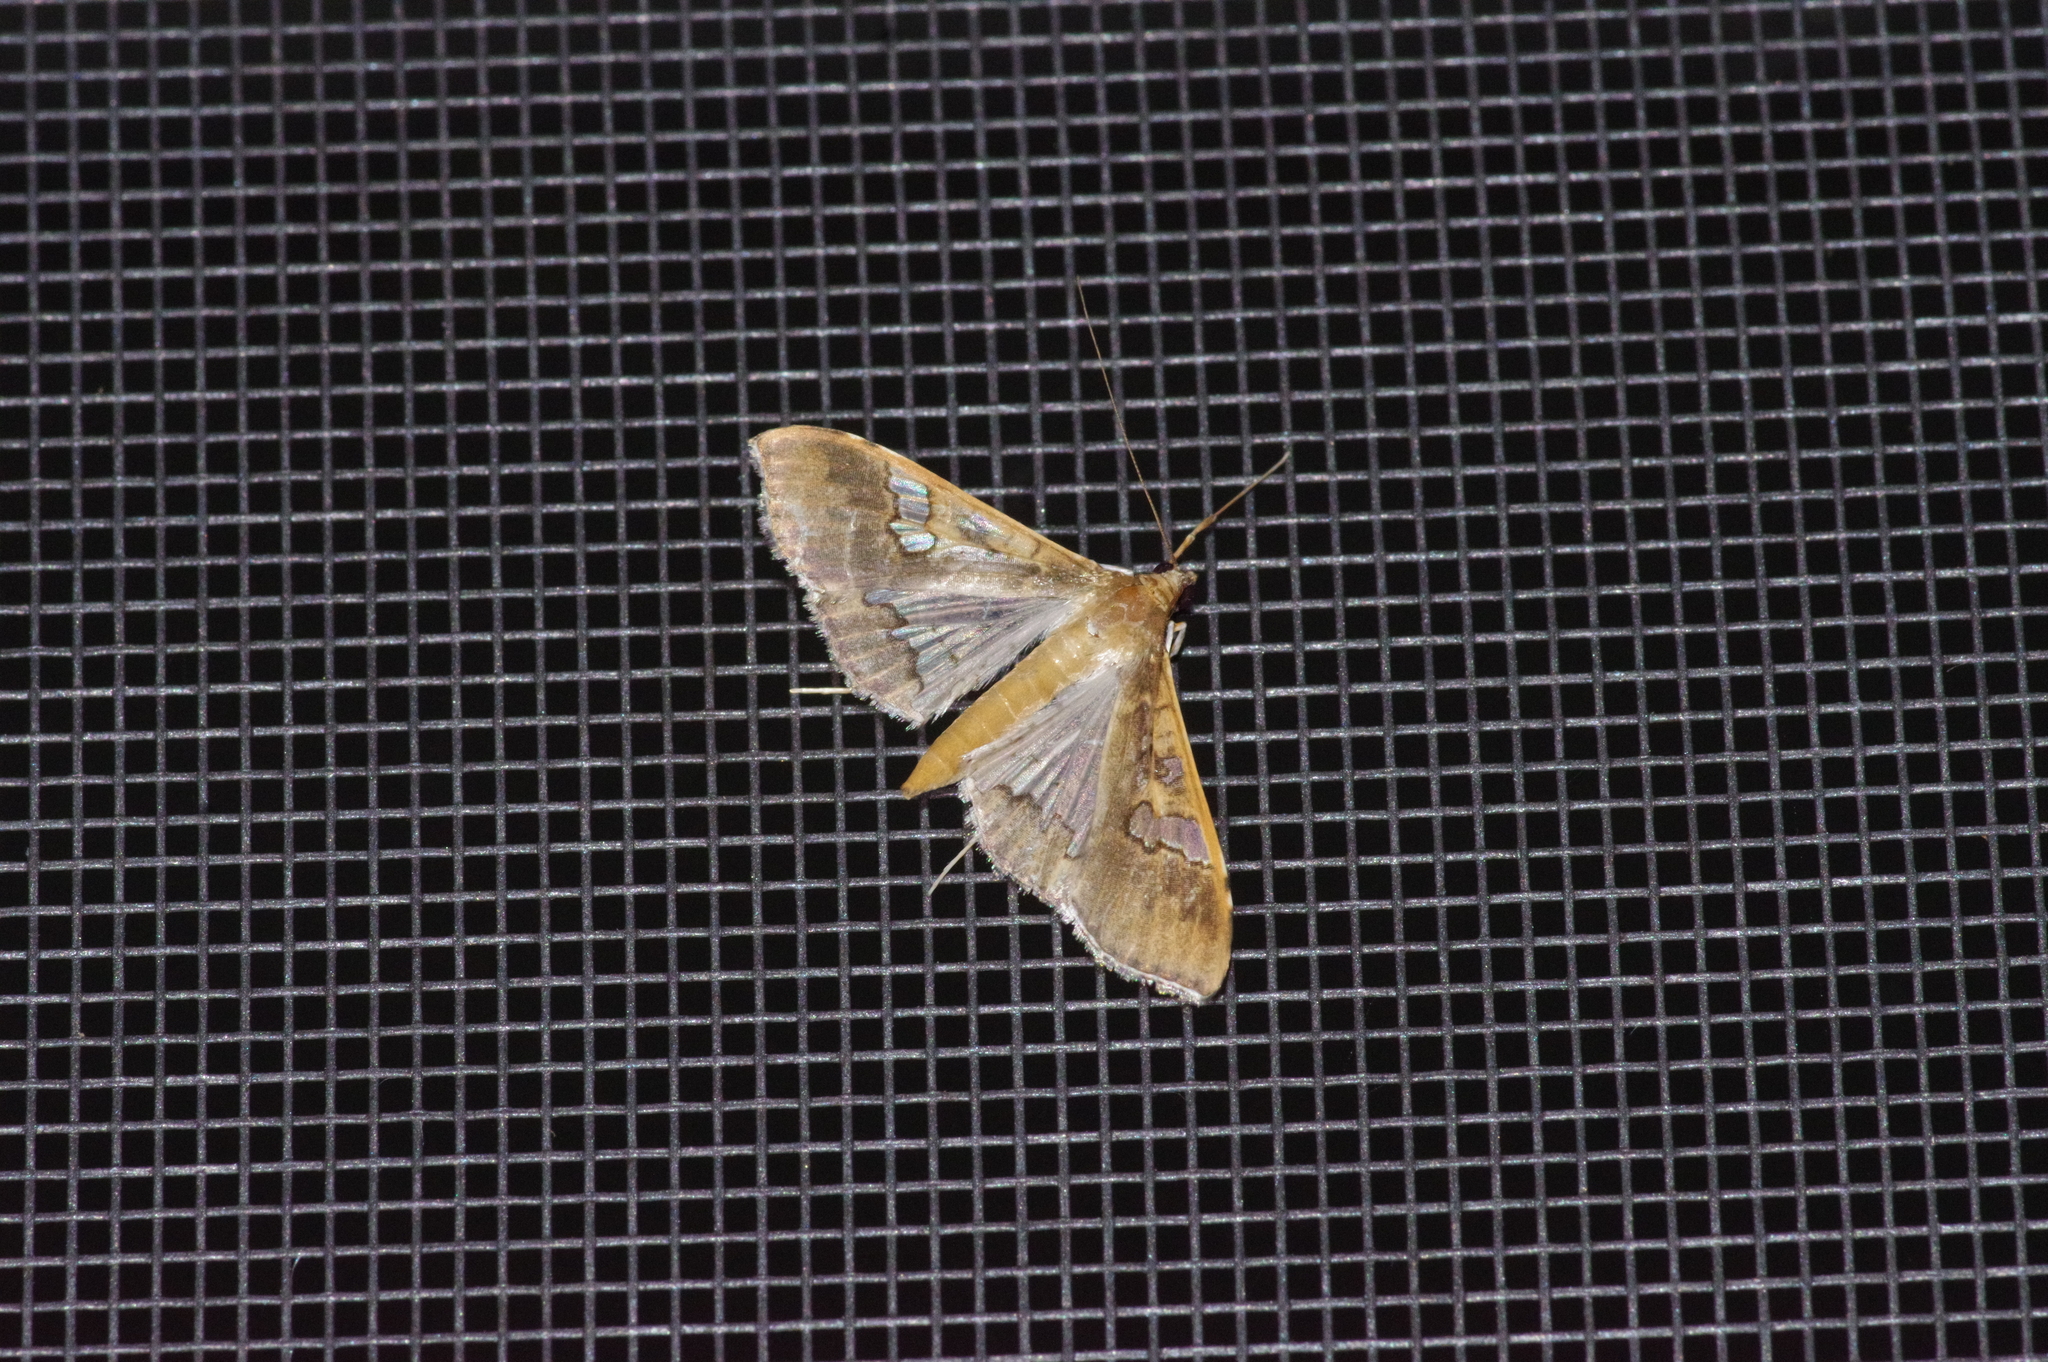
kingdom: Animalia
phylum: Arthropoda
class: Insecta
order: Lepidoptera
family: Crambidae
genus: Maruca
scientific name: Maruca vitrata
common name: Maruca pod borer
